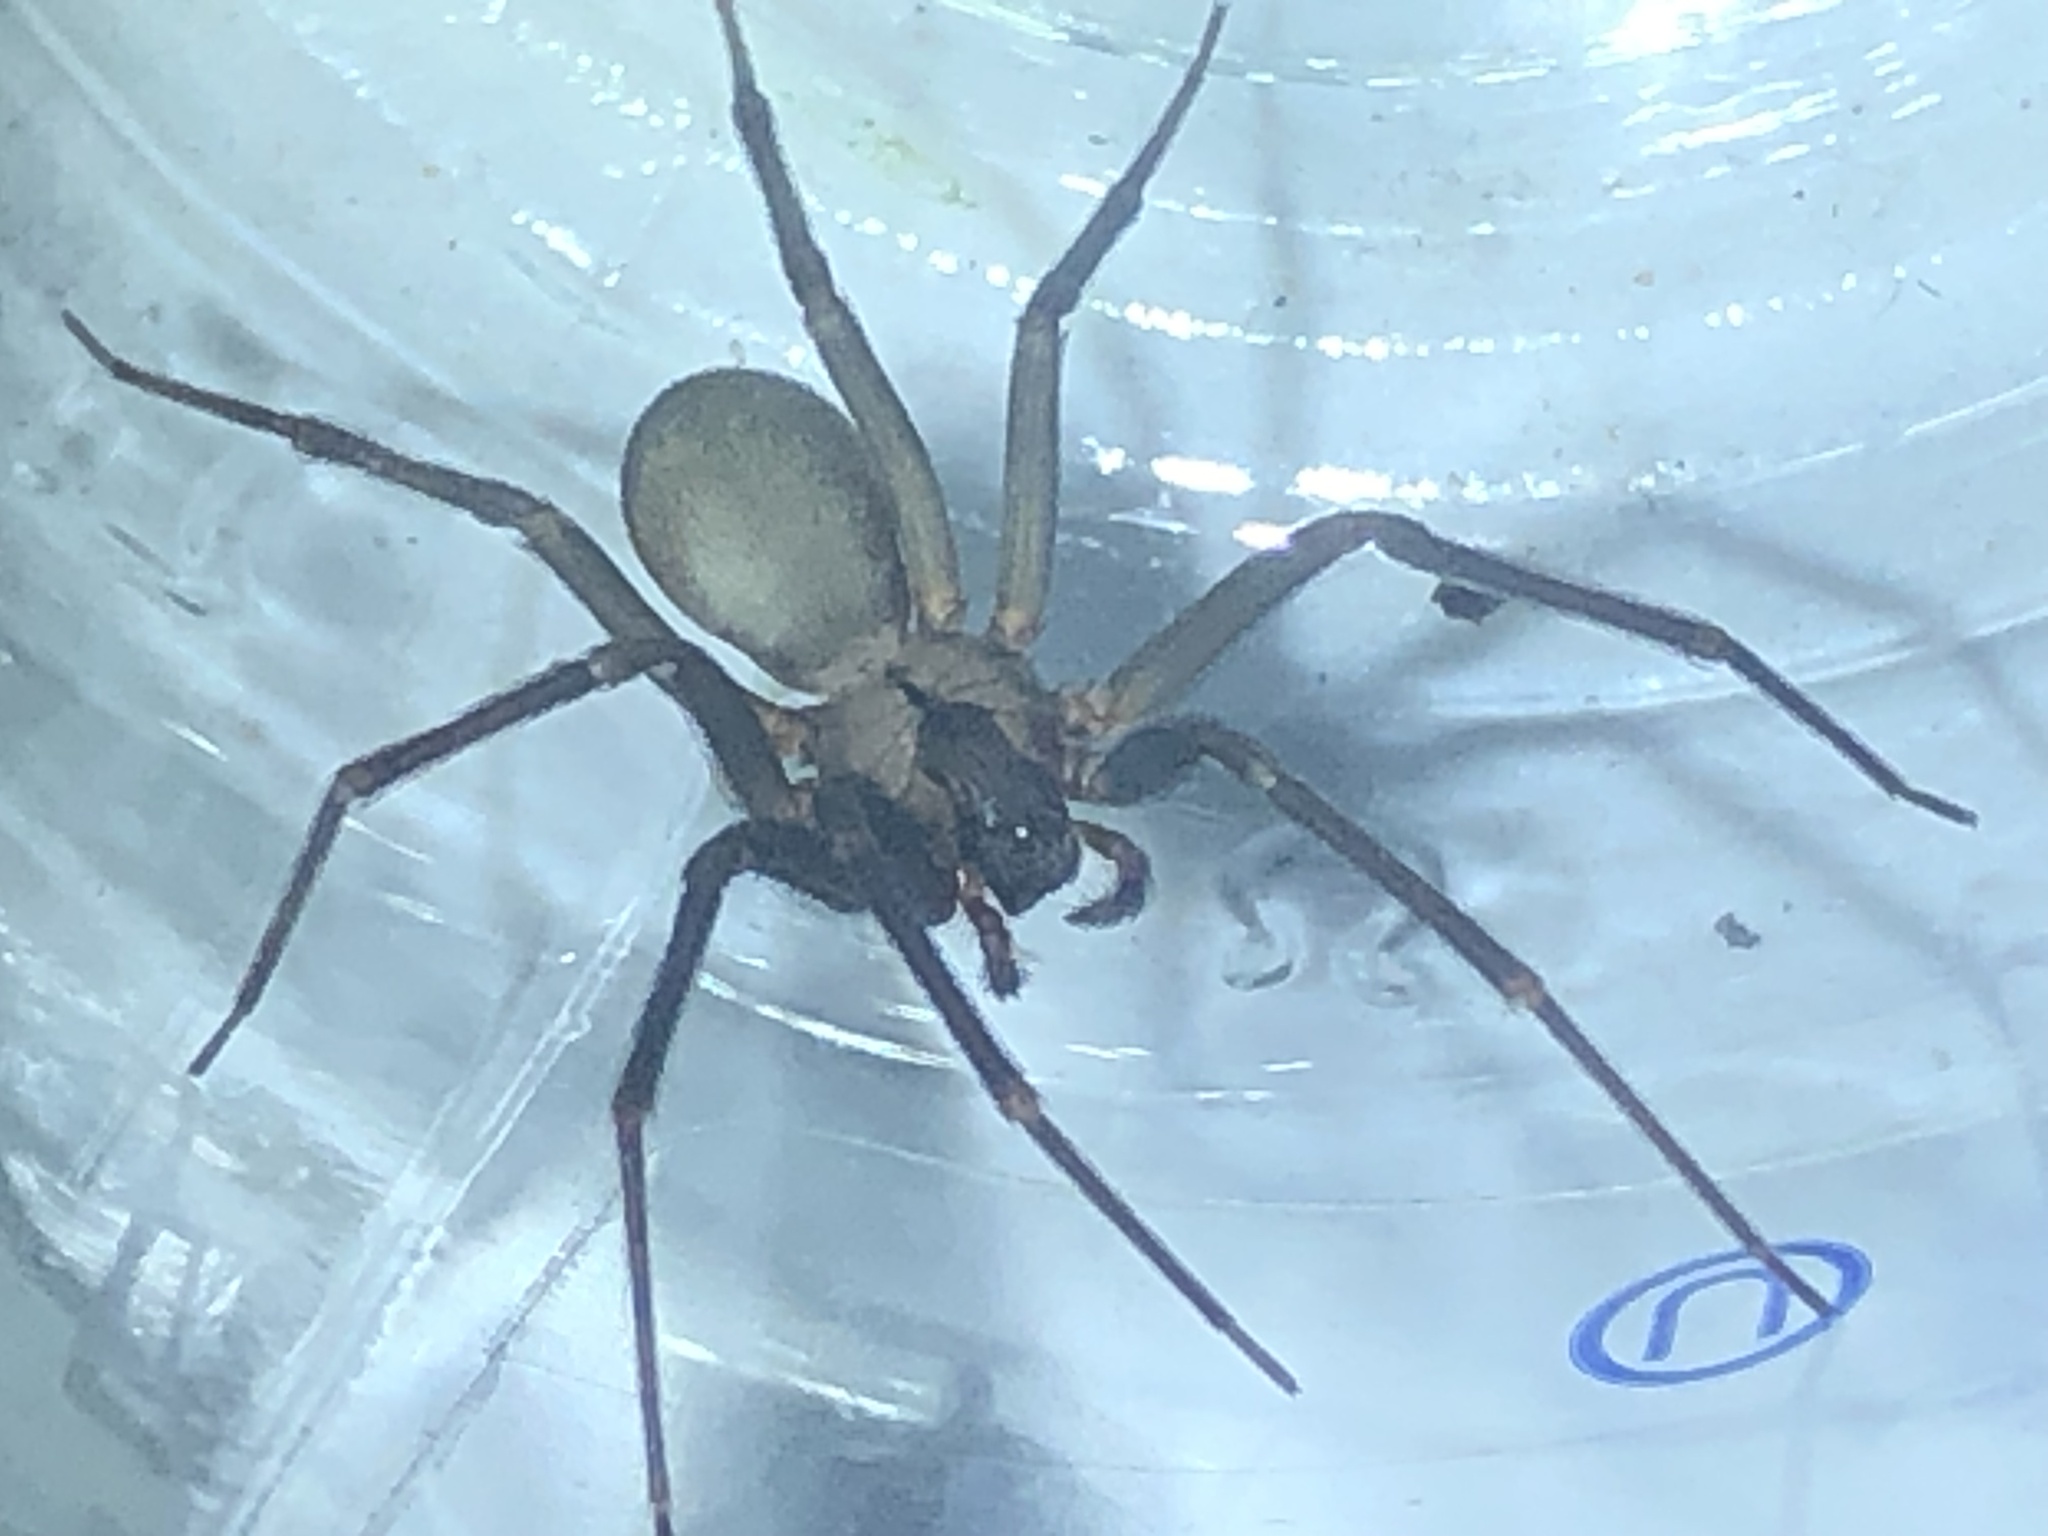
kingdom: Animalia
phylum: Arthropoda
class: Arachnida
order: Araneae
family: Sicariidae
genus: Loxosceles
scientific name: Loxosceles reclusa
